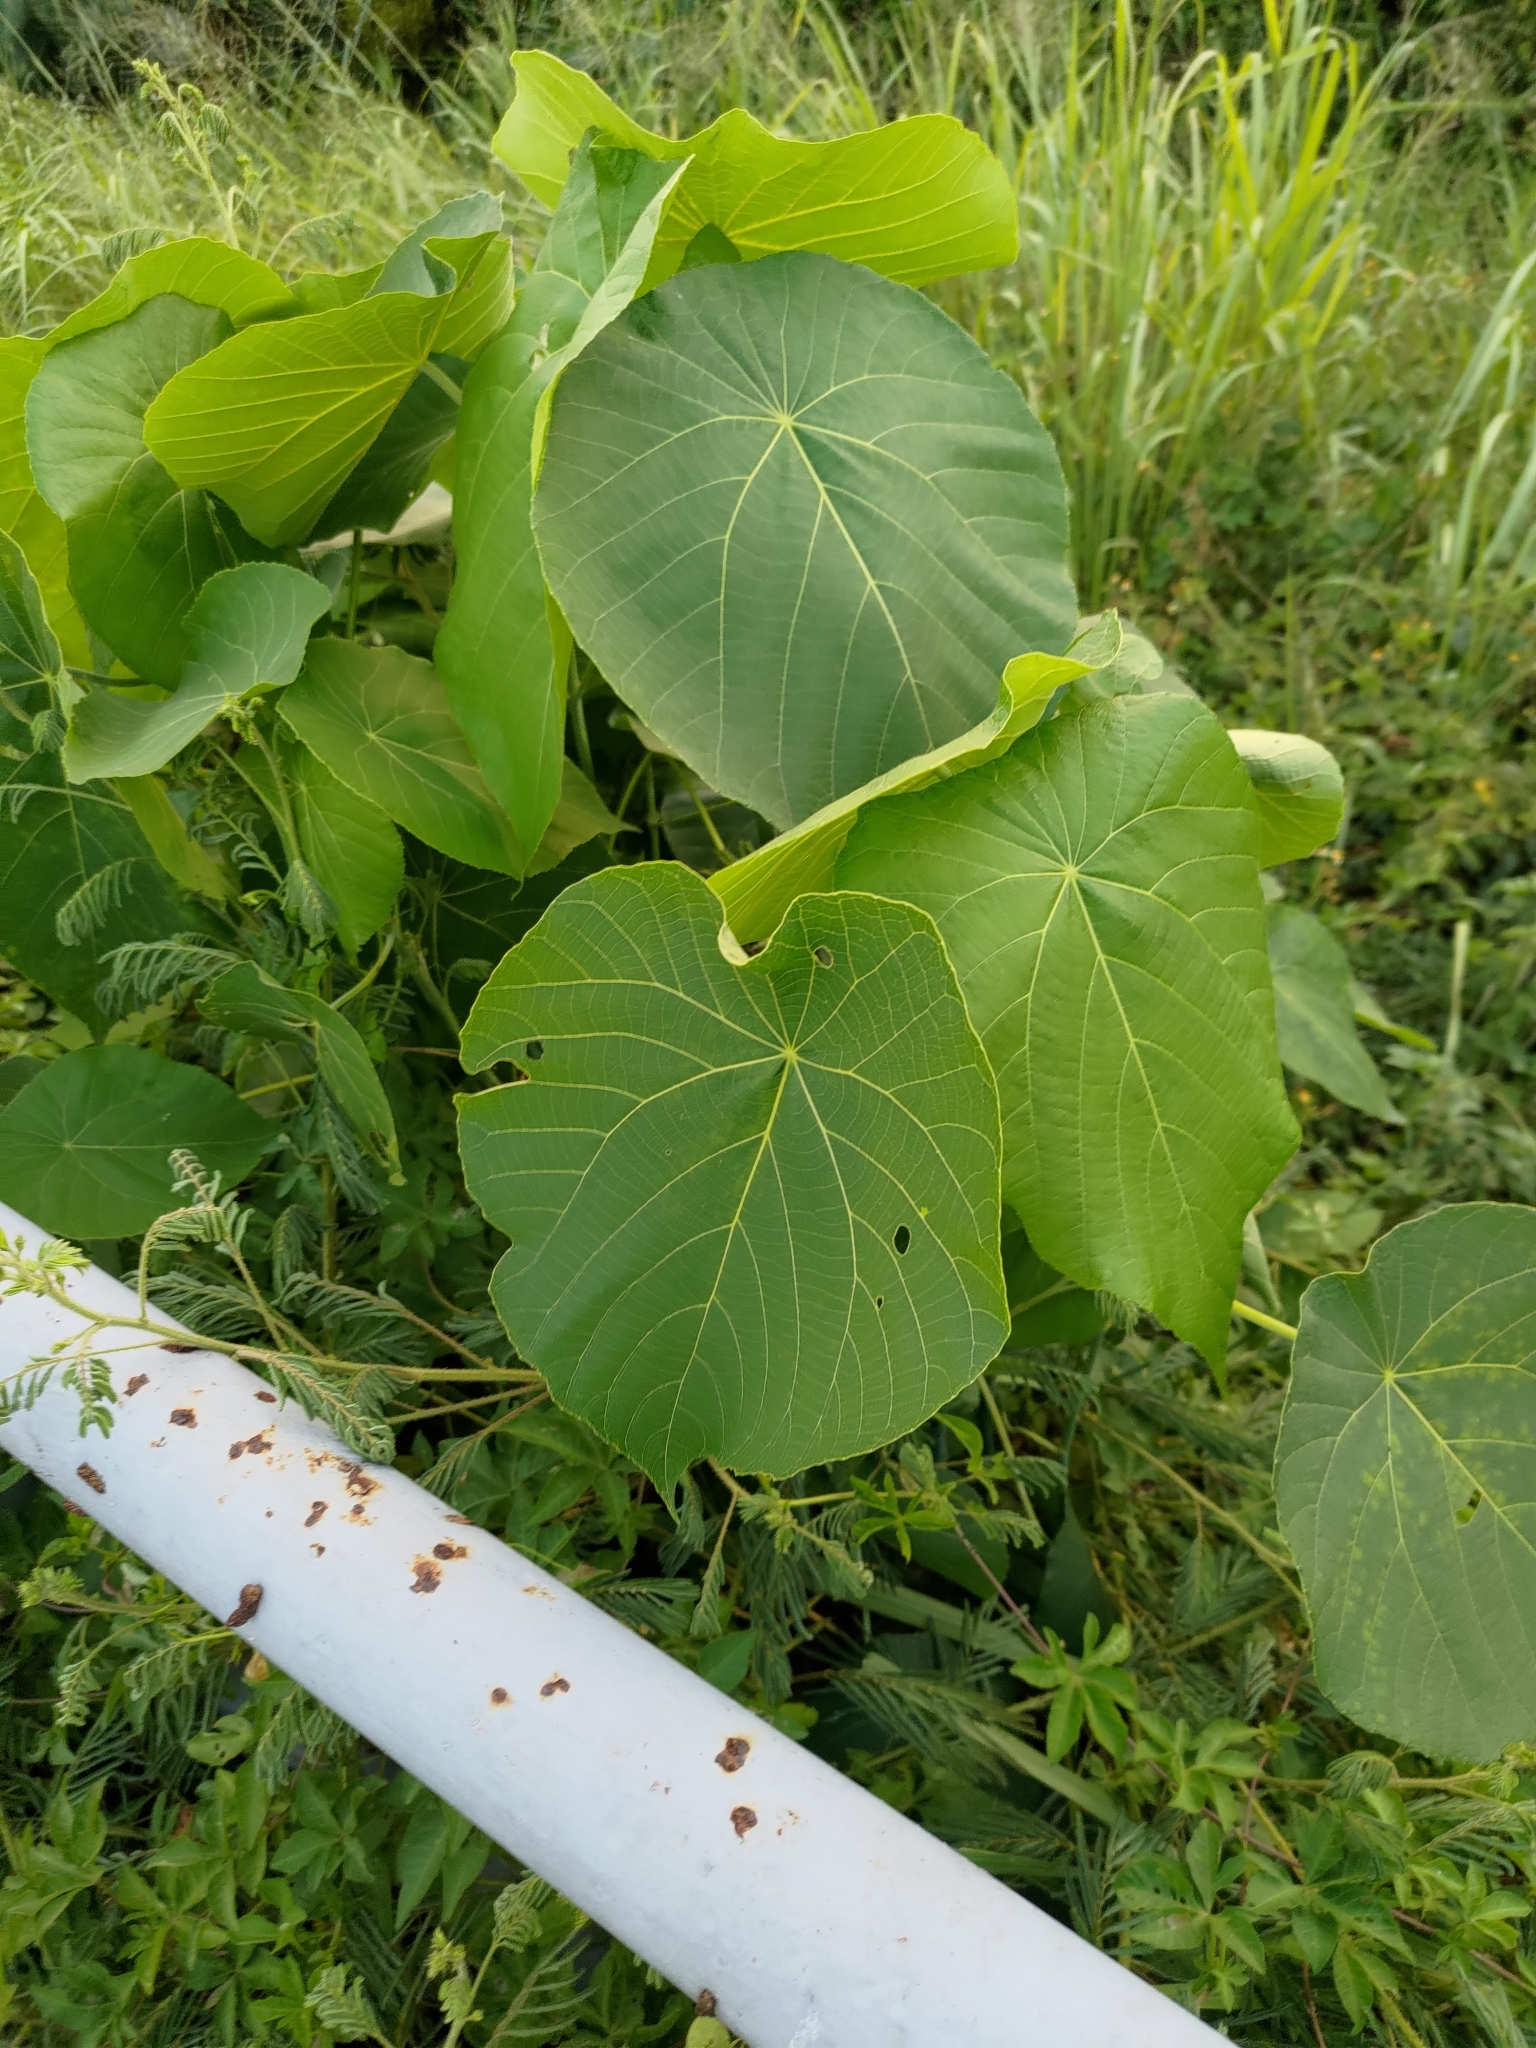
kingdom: Plantae
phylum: Tracheophyta
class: Magnoliopsida
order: Malpighiales
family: Euphorbiaceae
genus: Macaranga
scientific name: Macaranga tanarius
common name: Parasol leaf tree
